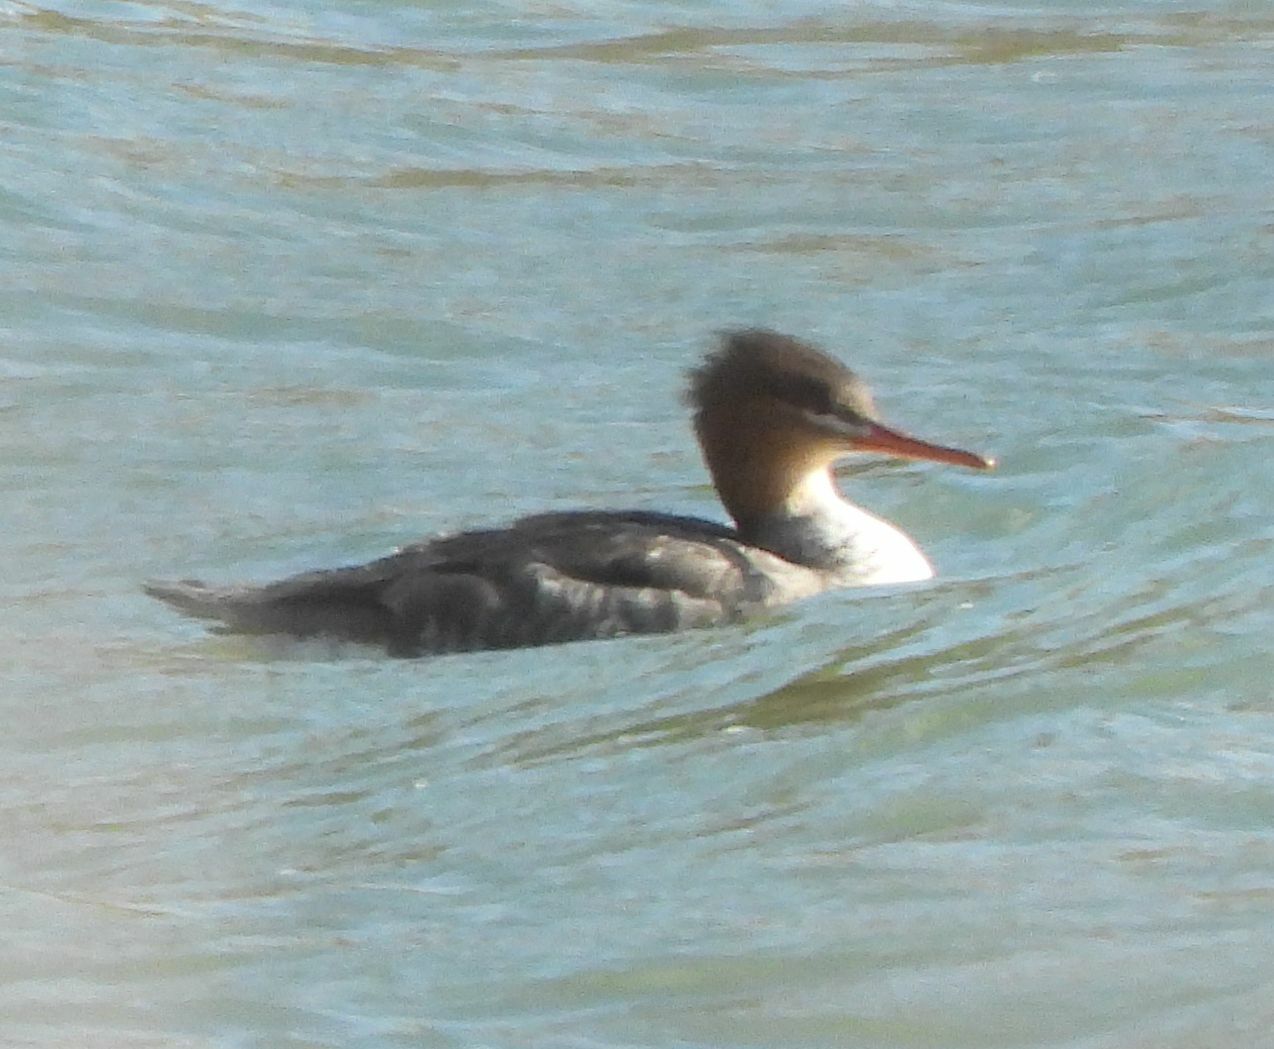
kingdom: Animalia
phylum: Chordata
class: Aves
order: Anseriformes
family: Anatidae
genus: Mergus
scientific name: Mergus serrator
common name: Red-breasted merganser
